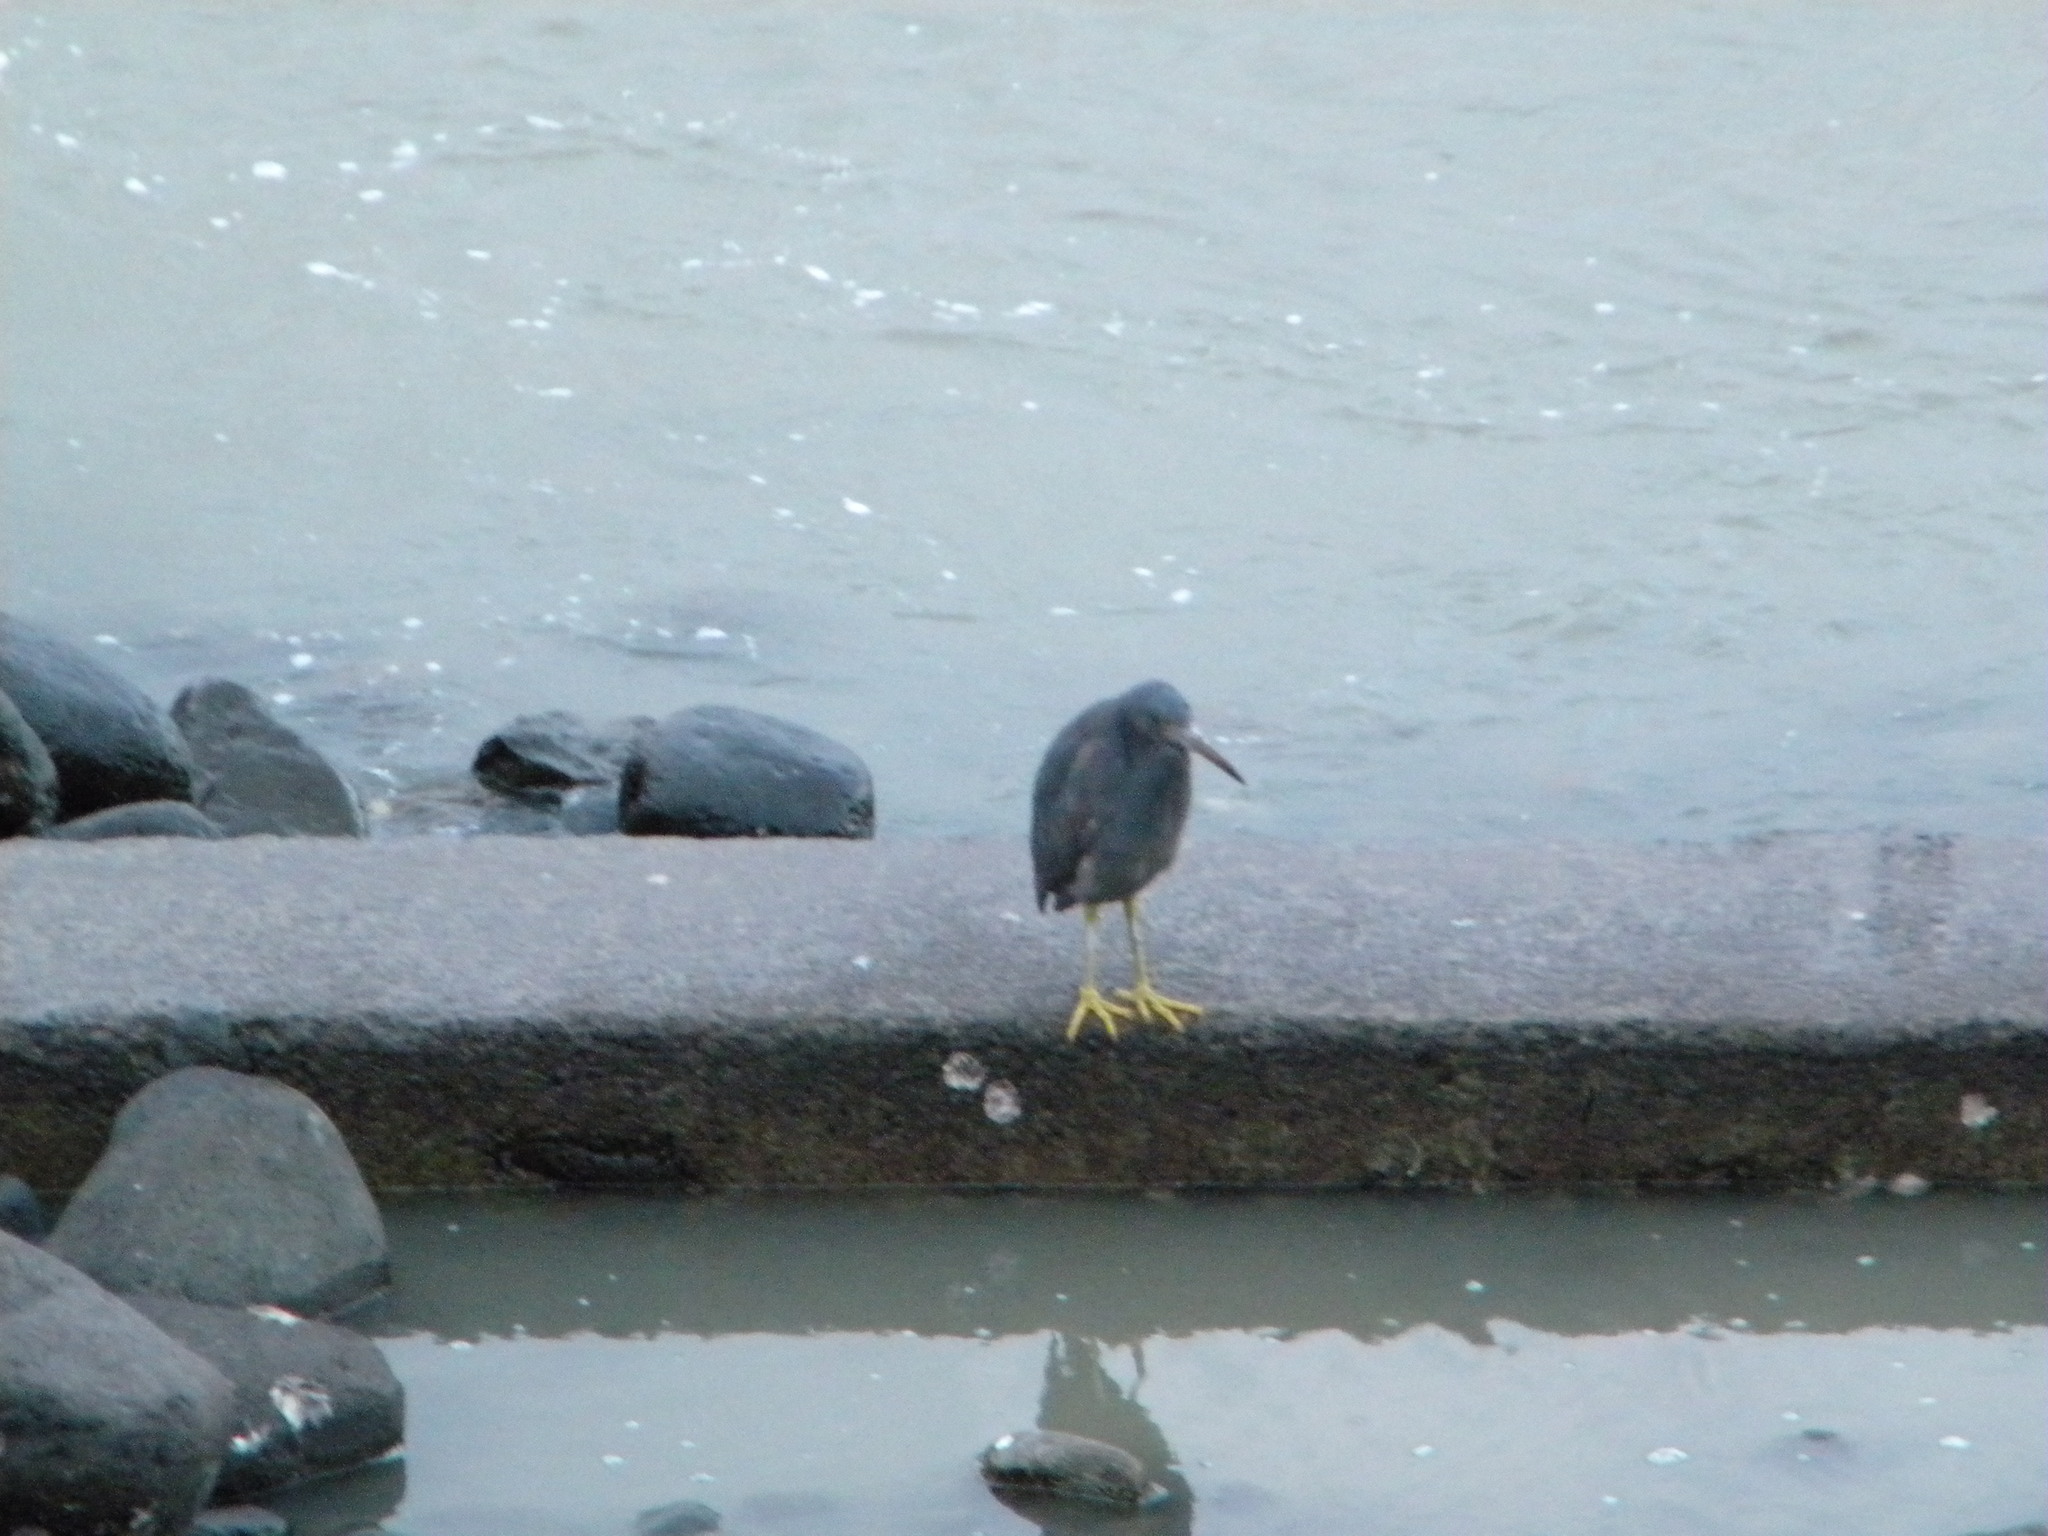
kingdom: Animalia
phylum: Chordata
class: Aves
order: Pelecaniformes
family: Ardeidae
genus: Egretta
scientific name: Egretta sacra
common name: Pacific reef heron
